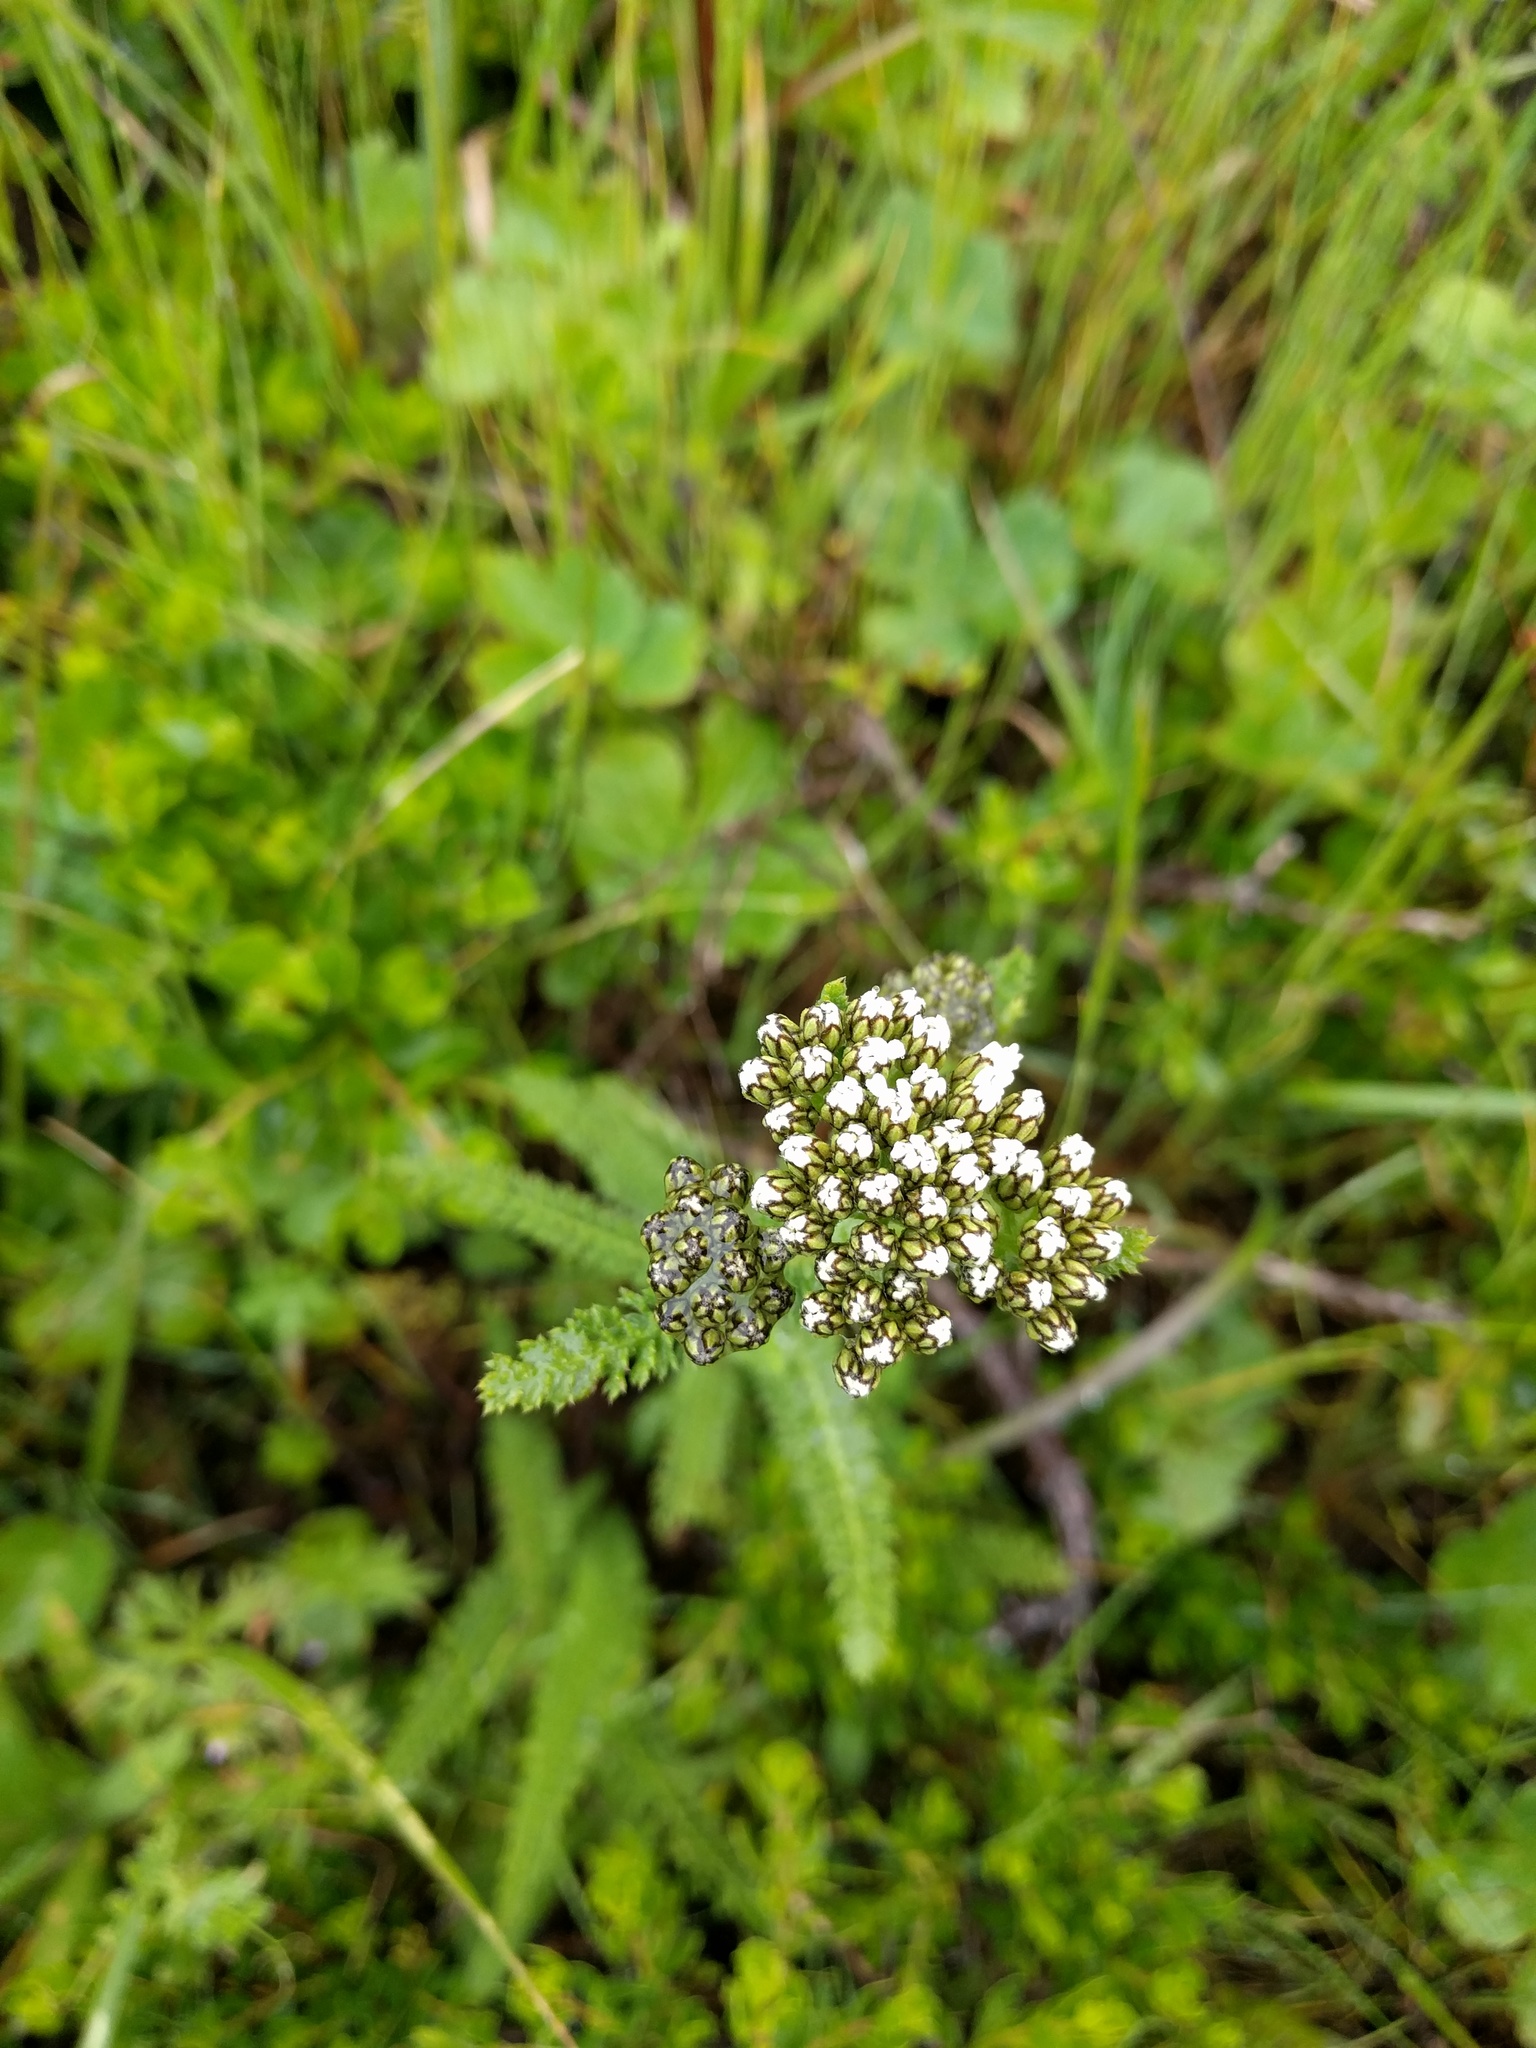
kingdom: Plantae
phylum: Tracheophyta
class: Magnoliopsida
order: Asterales
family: Asteraceae
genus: Achillea
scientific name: Achillea millefolium
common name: Yarrow
